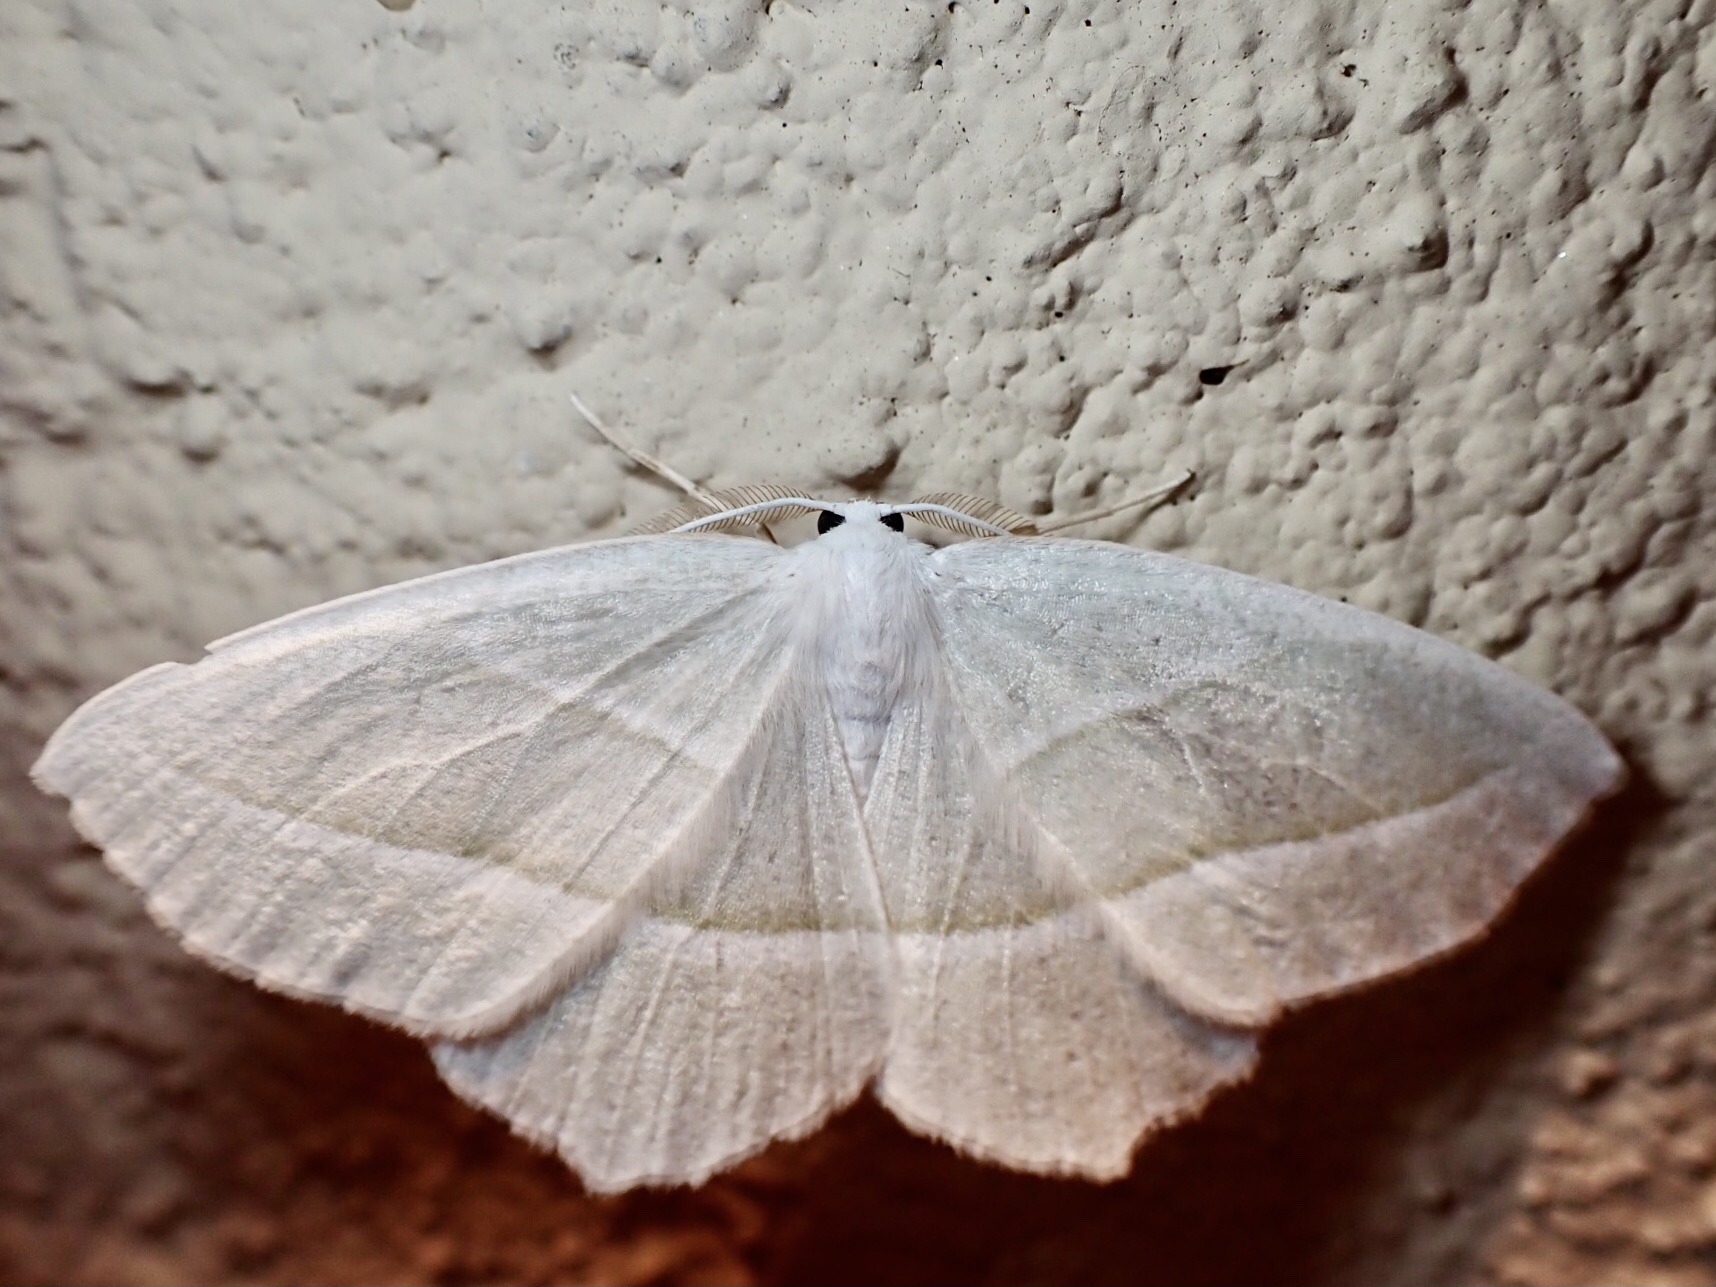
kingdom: Animalia
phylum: Arthropoda
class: Insecta
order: Lepidoptera
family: Geometridae
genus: Campaea
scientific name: Campaea perlata
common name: Fringed looper
